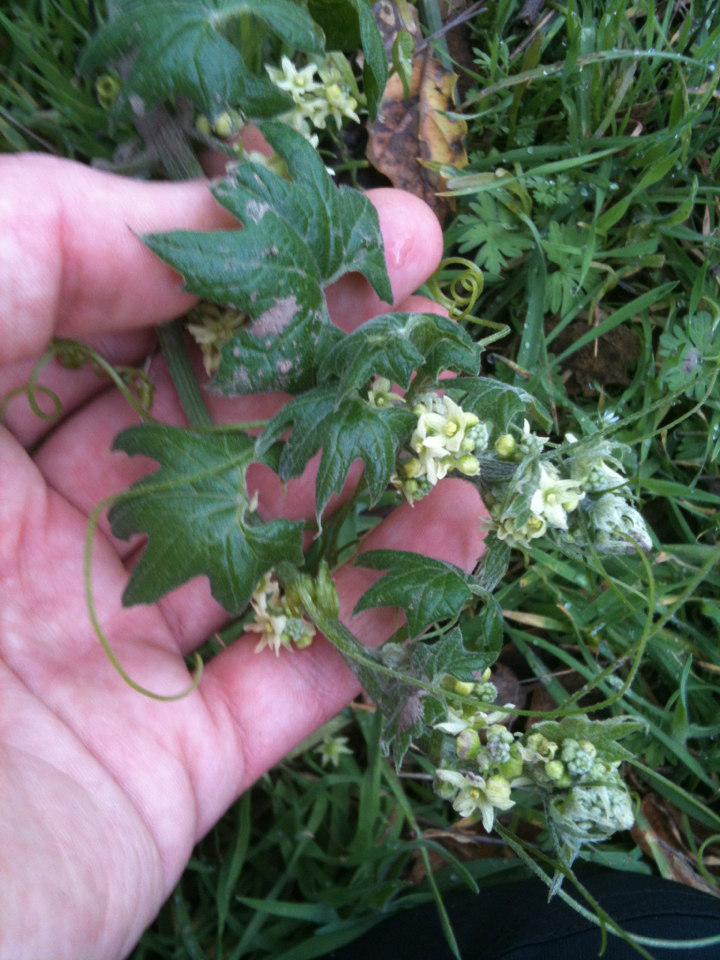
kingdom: Plantae
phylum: Tracheophyta
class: Magnoliopsida
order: Cucurbitales
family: Cucurbitaceae
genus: Marah
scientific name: Marah fabacea
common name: California manroot
